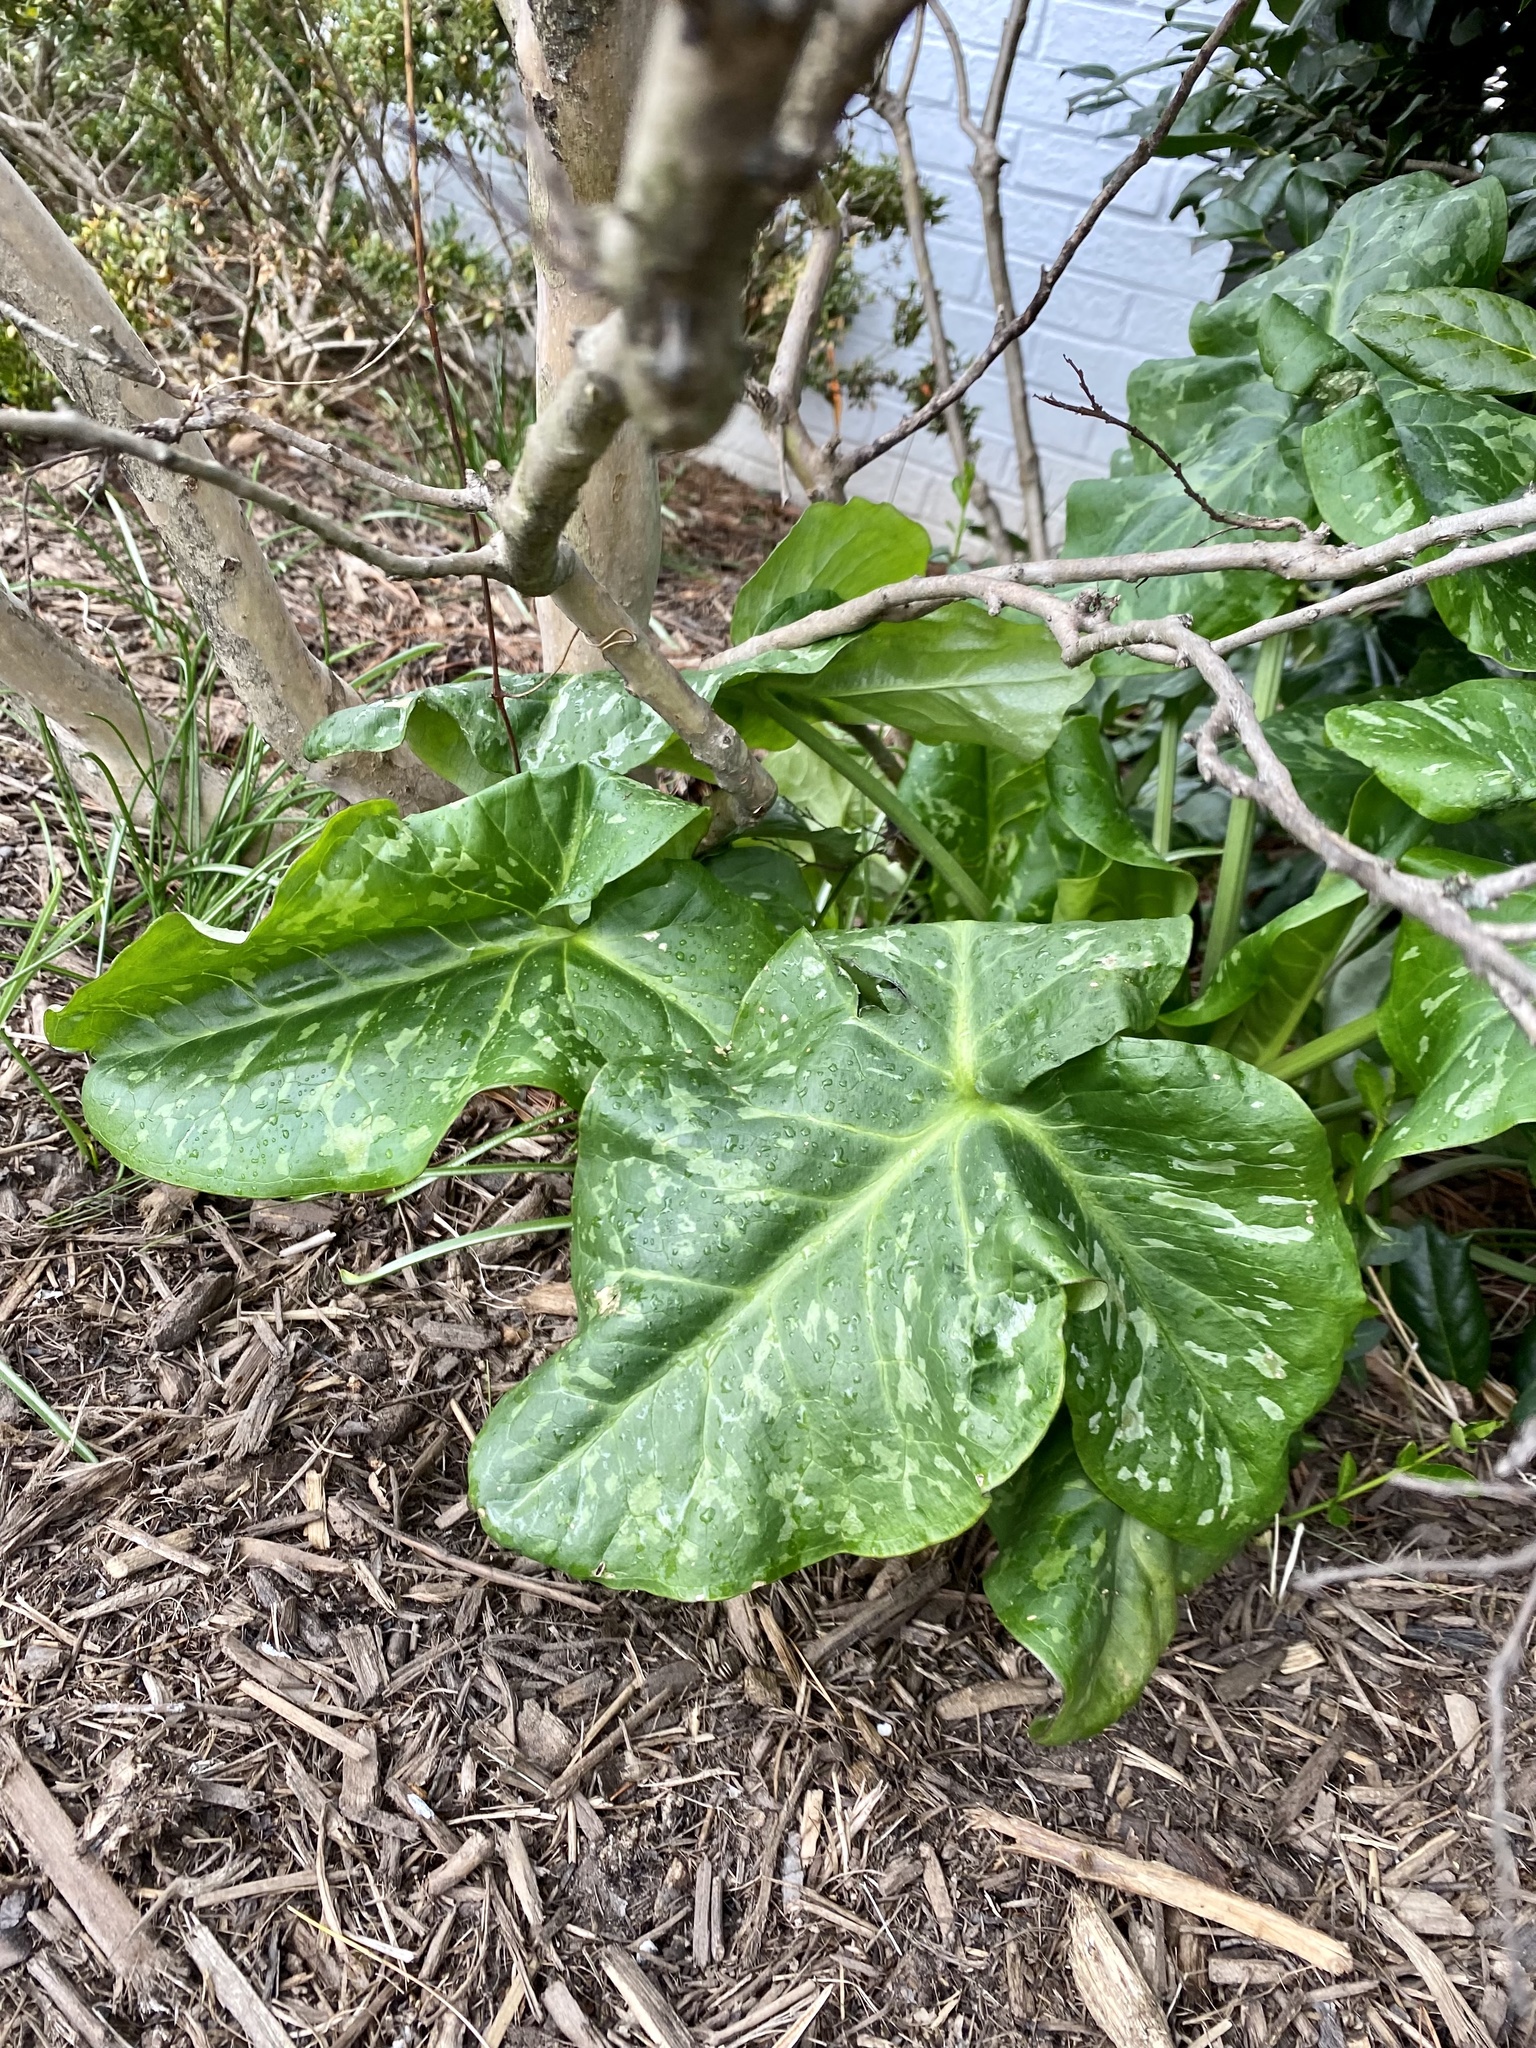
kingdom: Plantae
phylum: Tracheophyta
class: Liliopsida
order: Alismatales
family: Araceae
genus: Arum
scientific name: Arum italicum
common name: Italian lords-and-ladies
